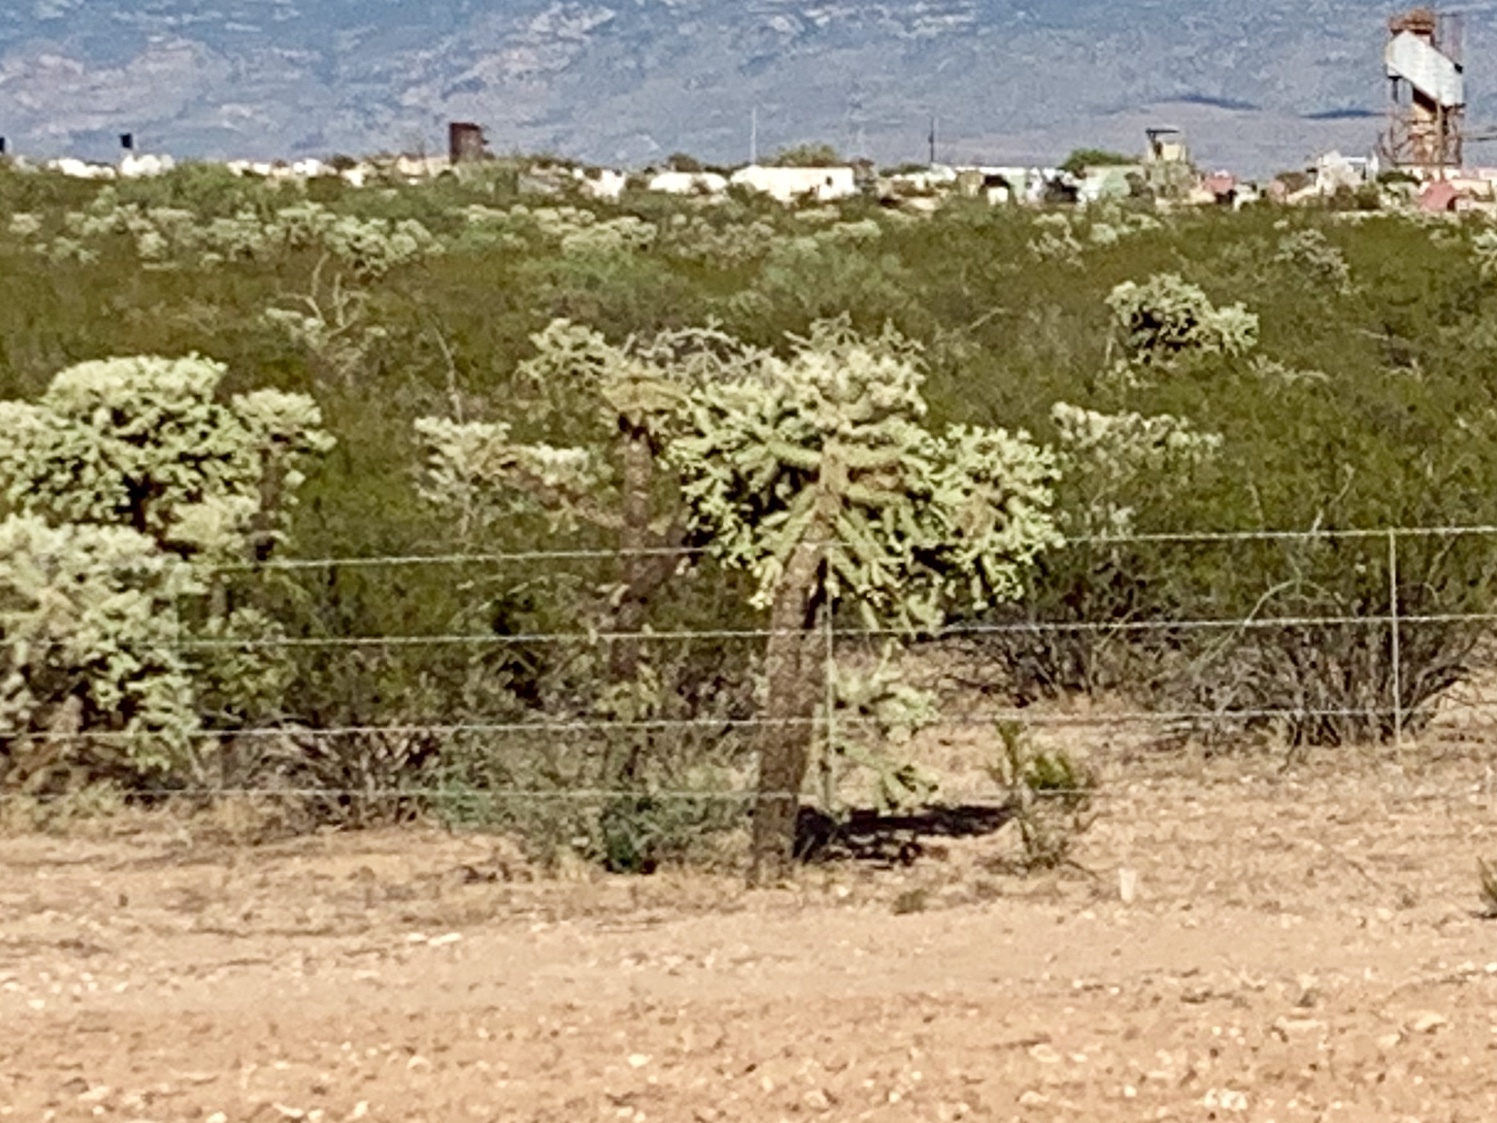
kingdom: Plantae
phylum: Tracheophyta
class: Magnoliopsida
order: Caryophyllales
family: Cactaceae
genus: Cylindropuntia
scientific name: Cylindropuntia fulgida
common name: Jumping cholla
